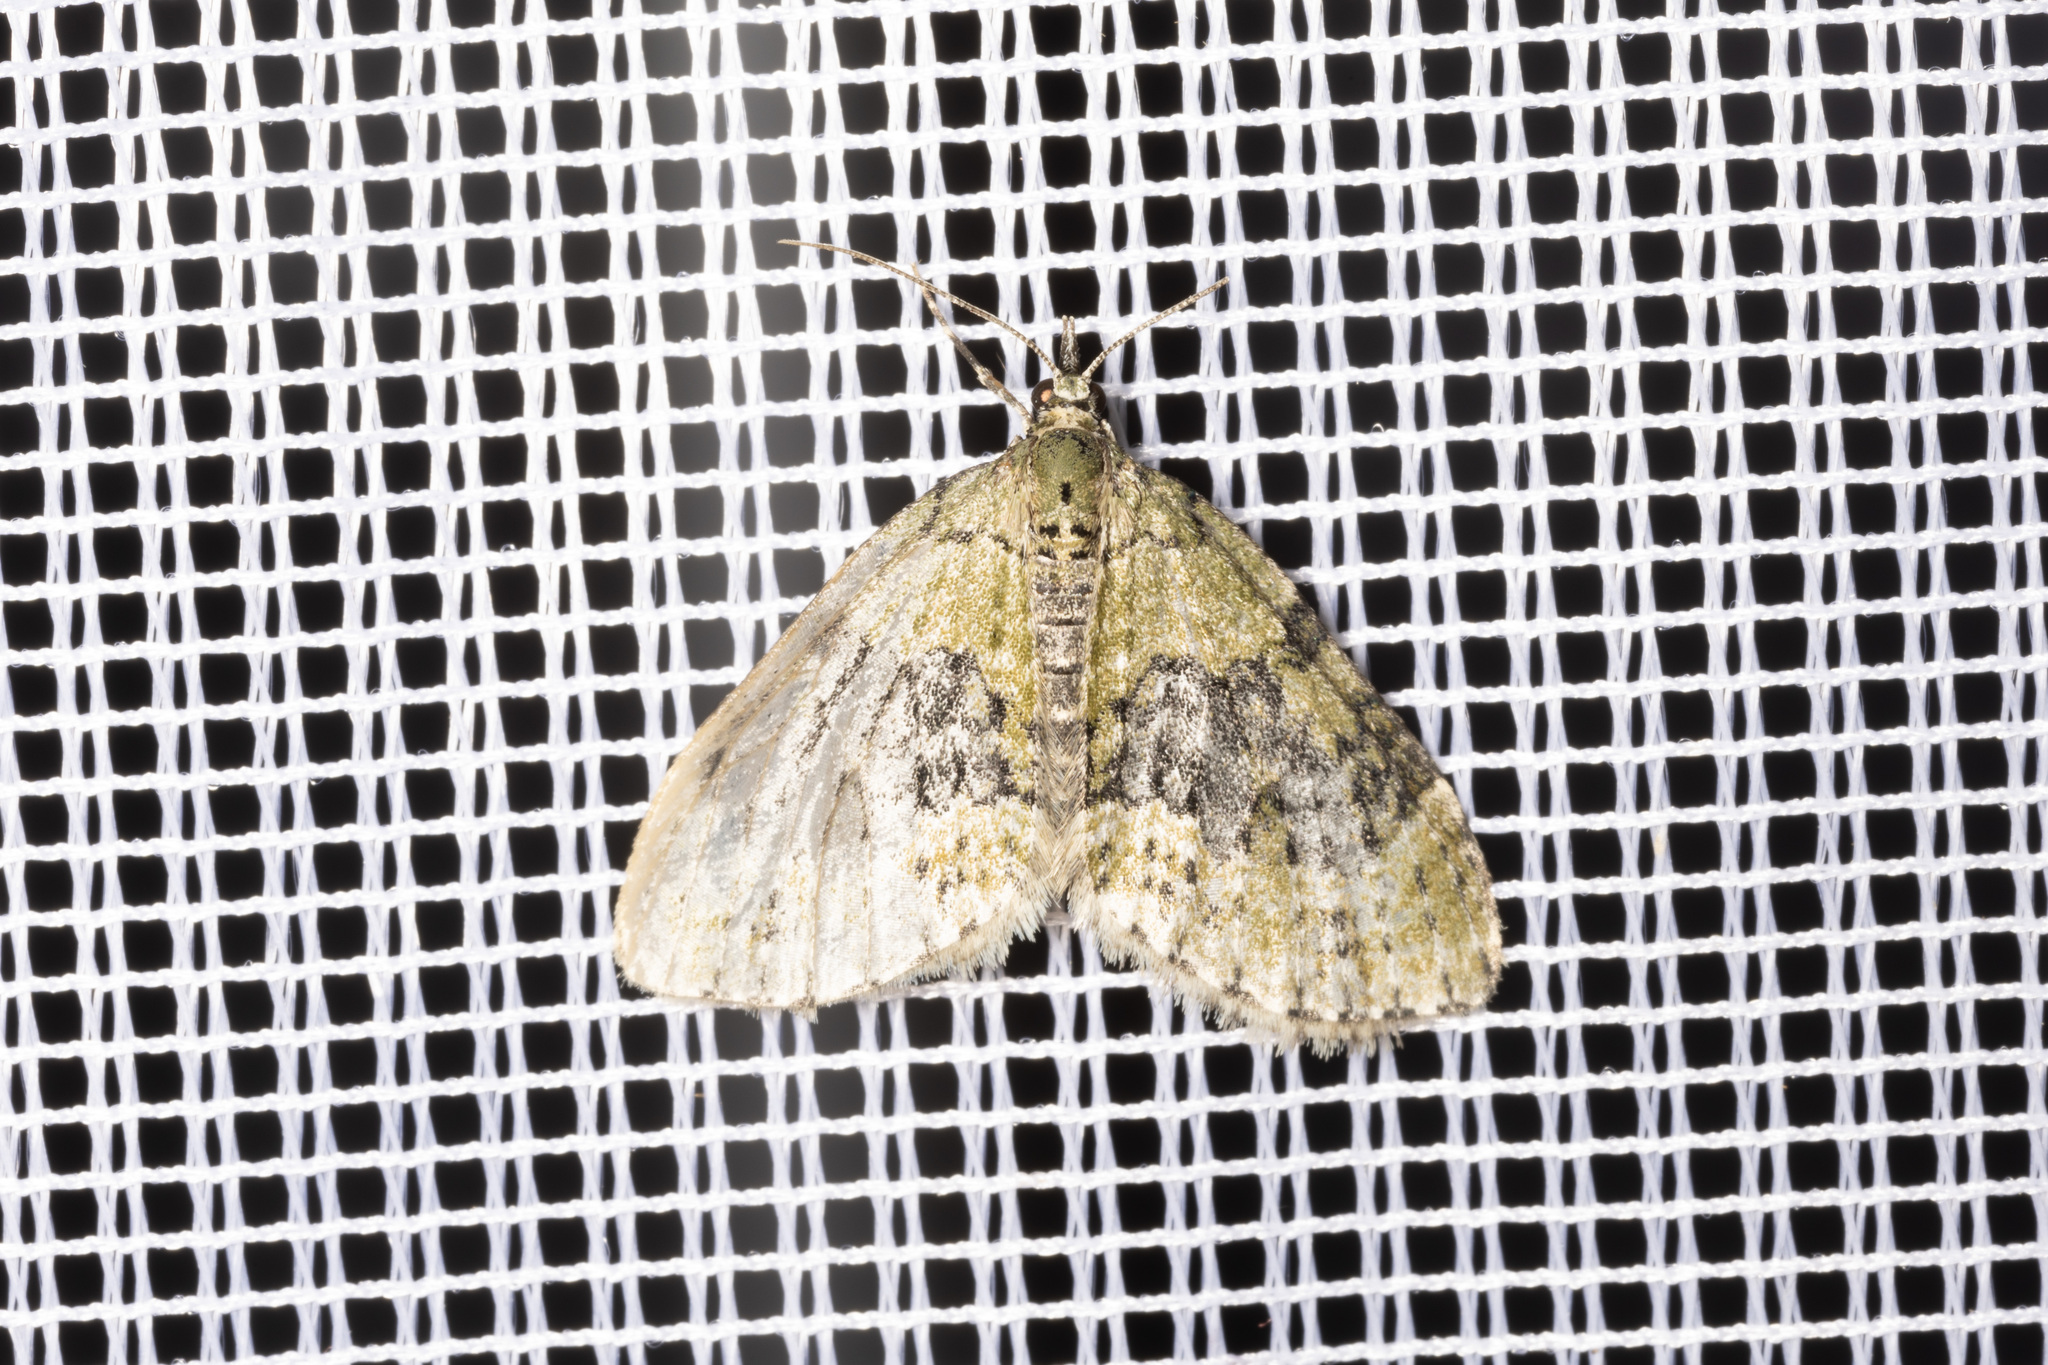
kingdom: Animalia
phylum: Arthropoda
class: Insecta
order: Lepidoptera
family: Geometridae
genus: Acasis
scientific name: Acasis viretata
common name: Yellow-barred brindle
